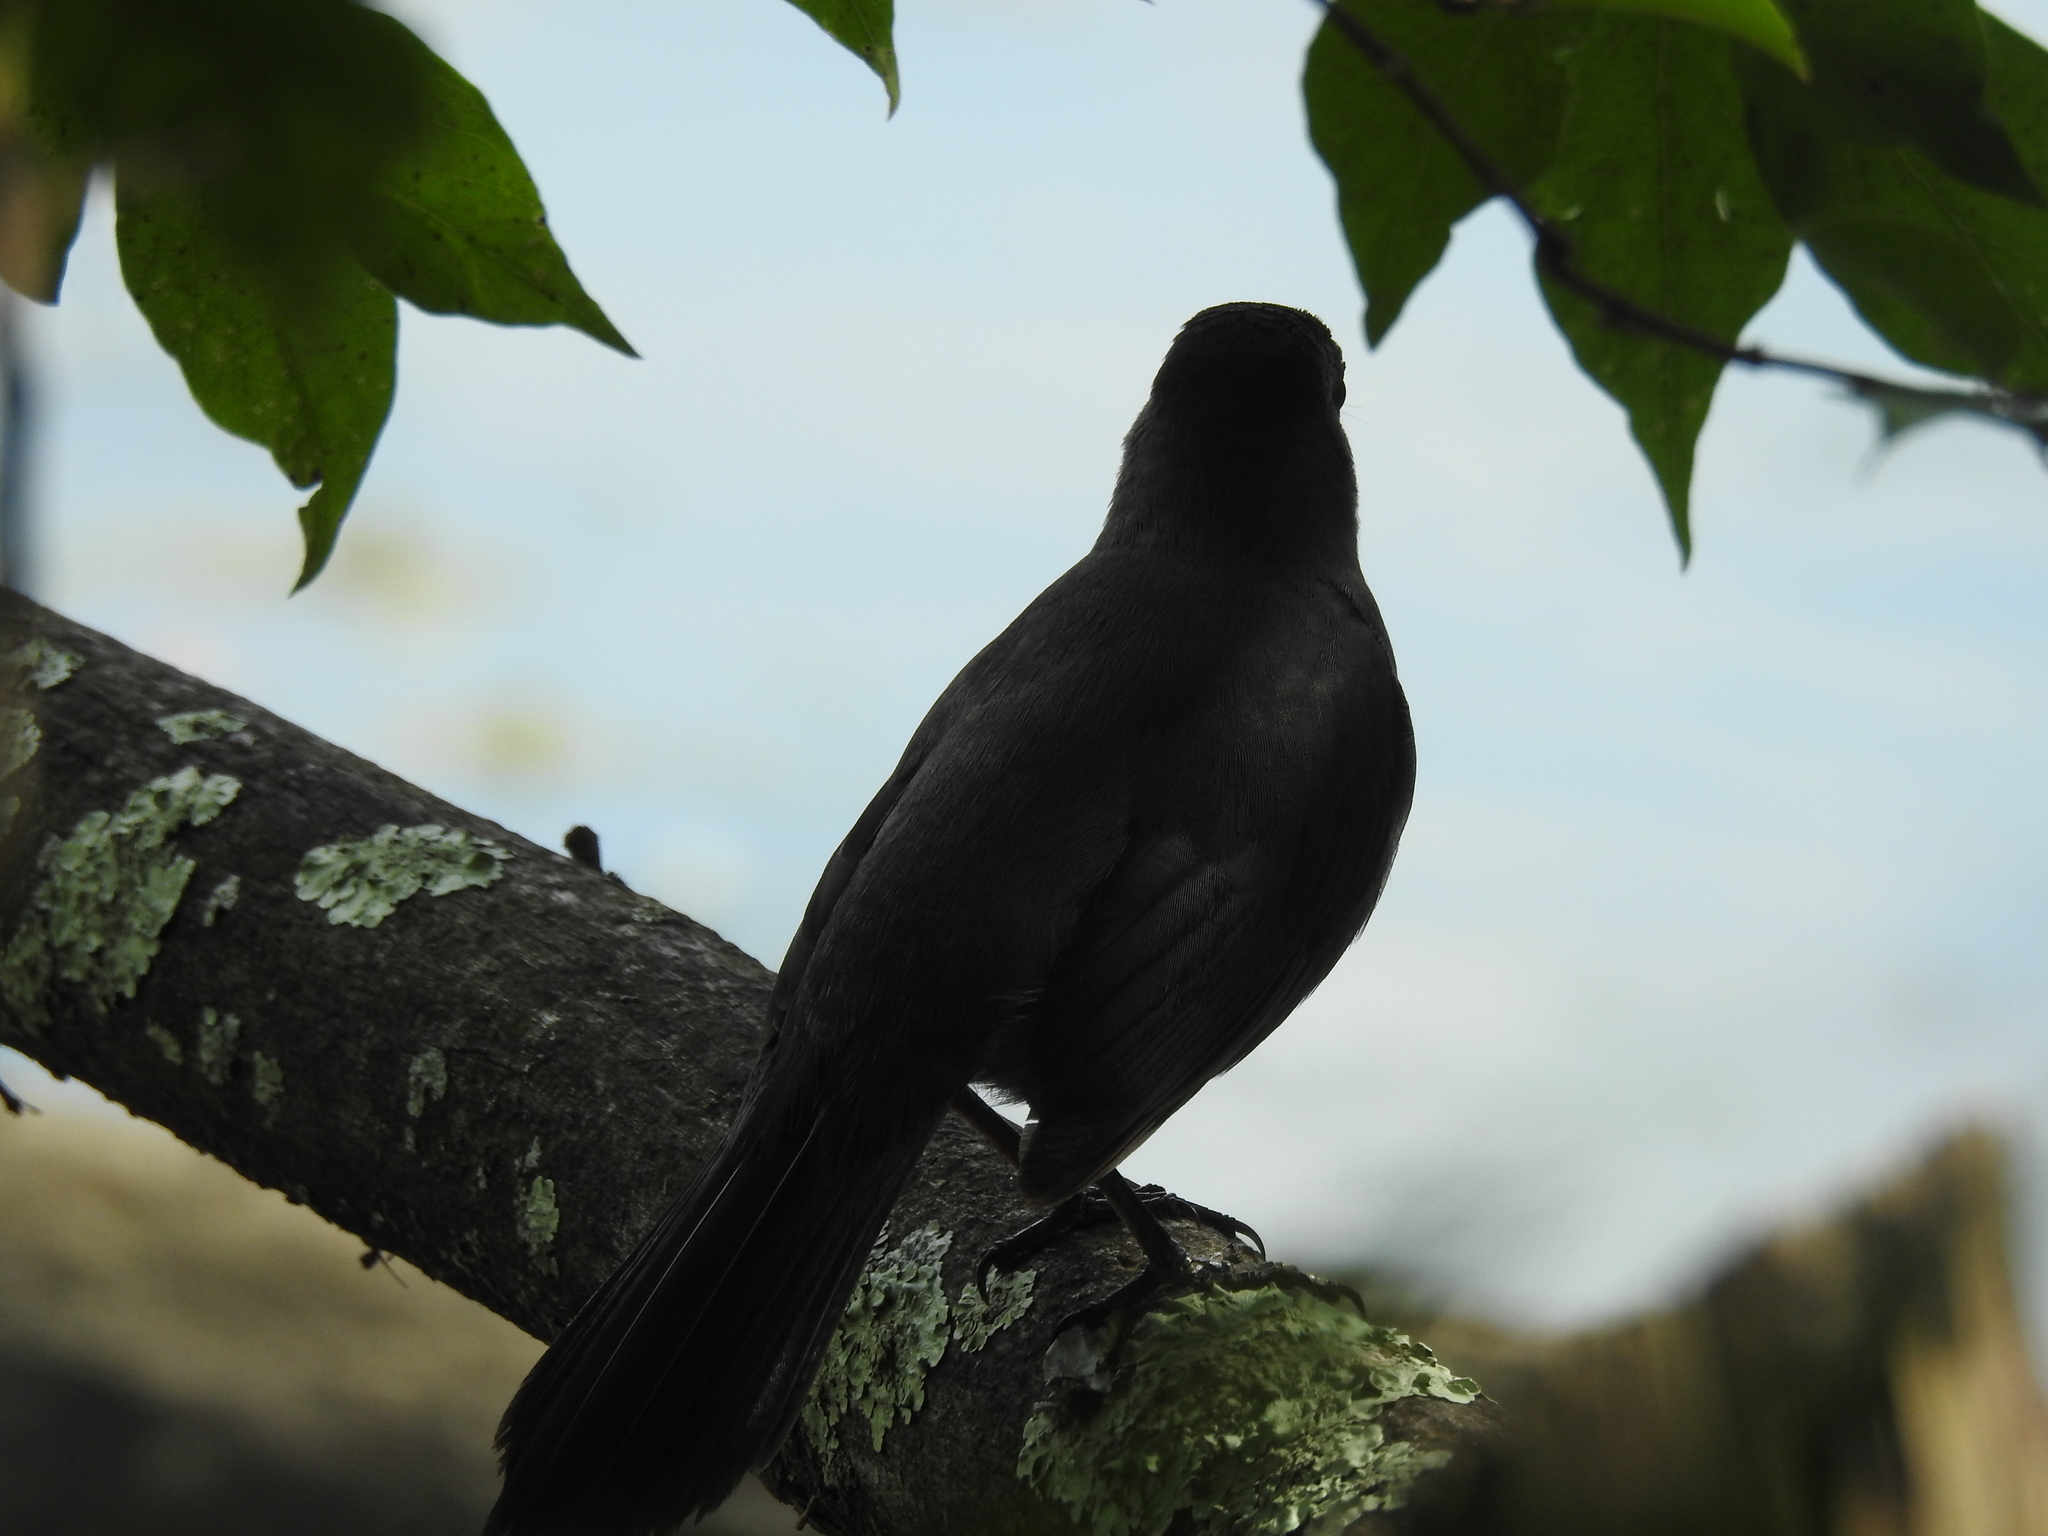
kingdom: Animalia
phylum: Chordata
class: Aves
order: Passeriformes
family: Mimidae
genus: Dumetella
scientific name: Dumetella carolinensis
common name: Gray catbird
